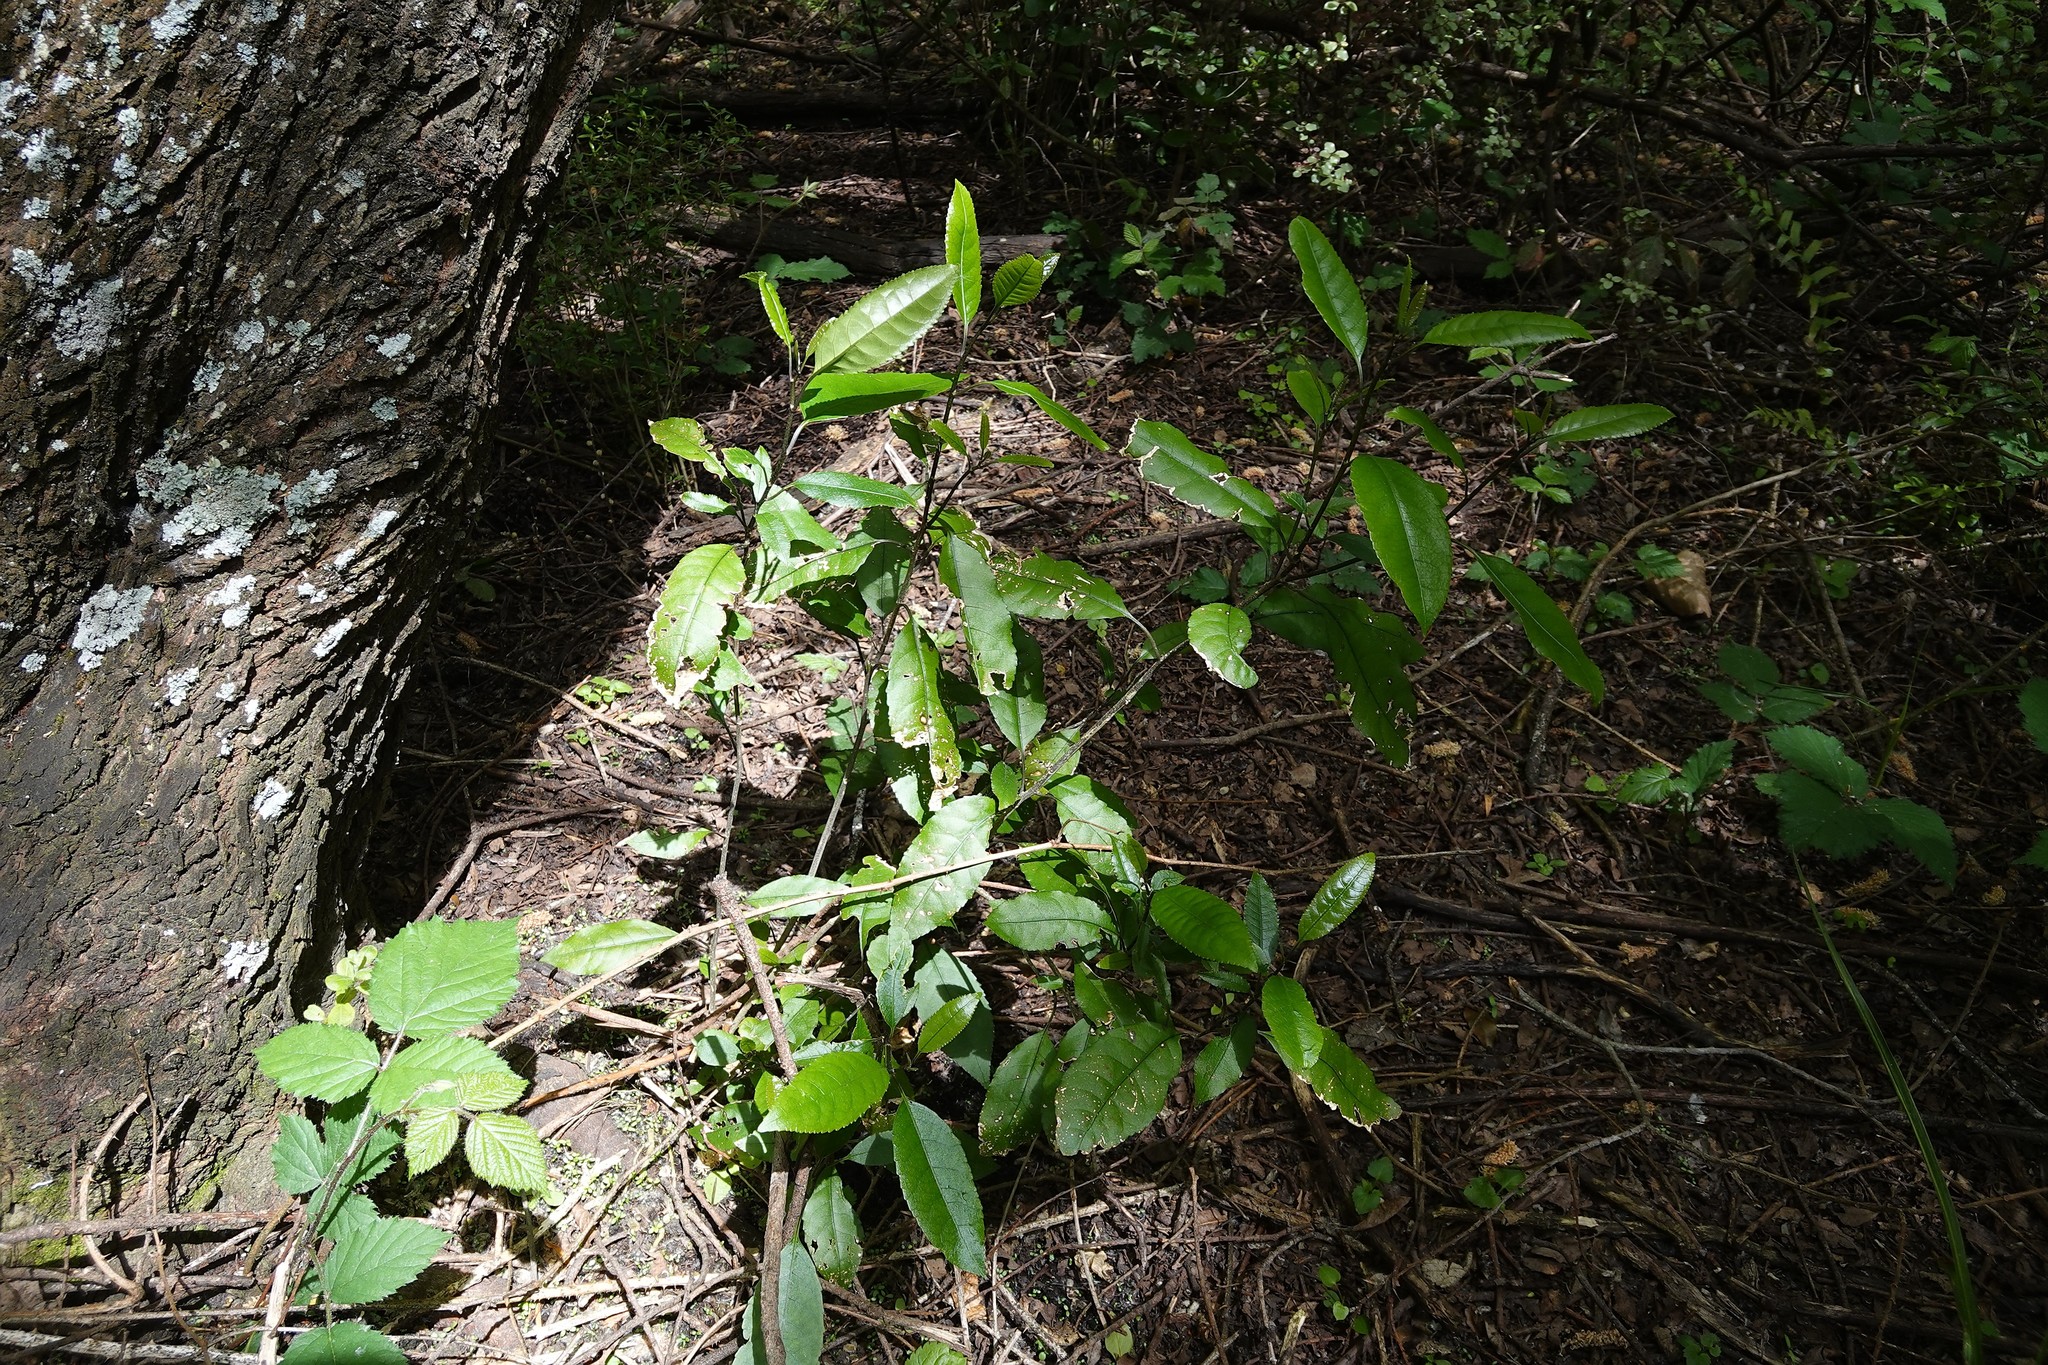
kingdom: Plantae
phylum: Tracheophyta
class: Magnoliopsida
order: Malpighiales
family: Violaceae
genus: Melicytus
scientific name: Melicytus ramiflorus
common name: Mahoe
